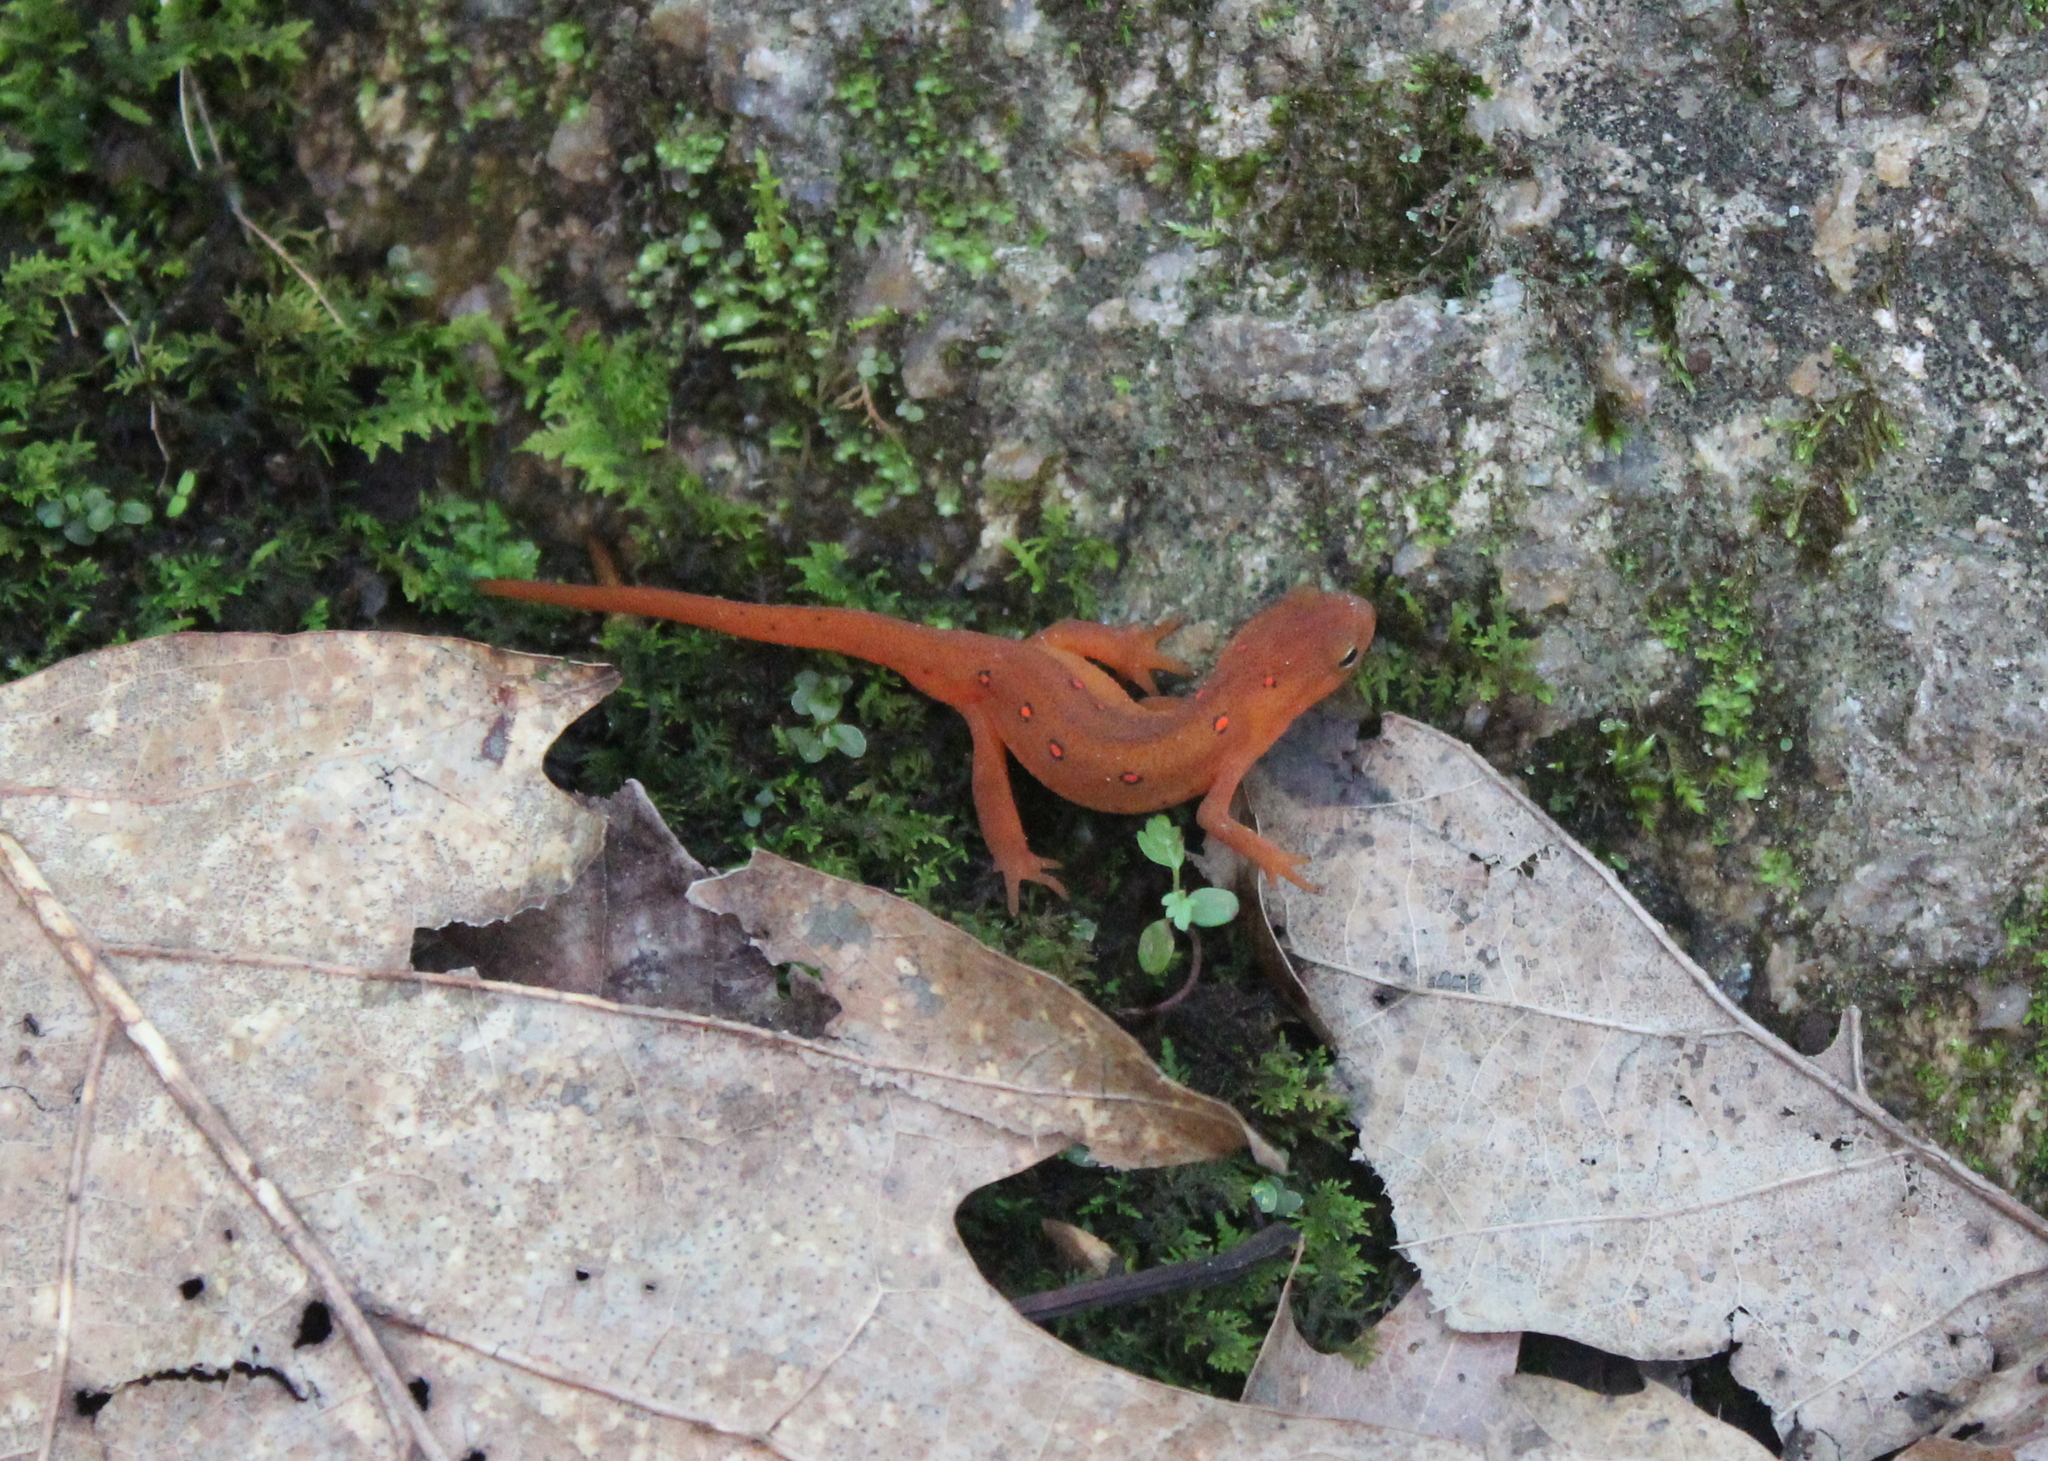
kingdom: Animalia
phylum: Chordata
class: Amphibia
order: Caudata
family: Salamandridae
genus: Notophthalmus
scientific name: Notophthalmus viridescens
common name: Eastern newt
